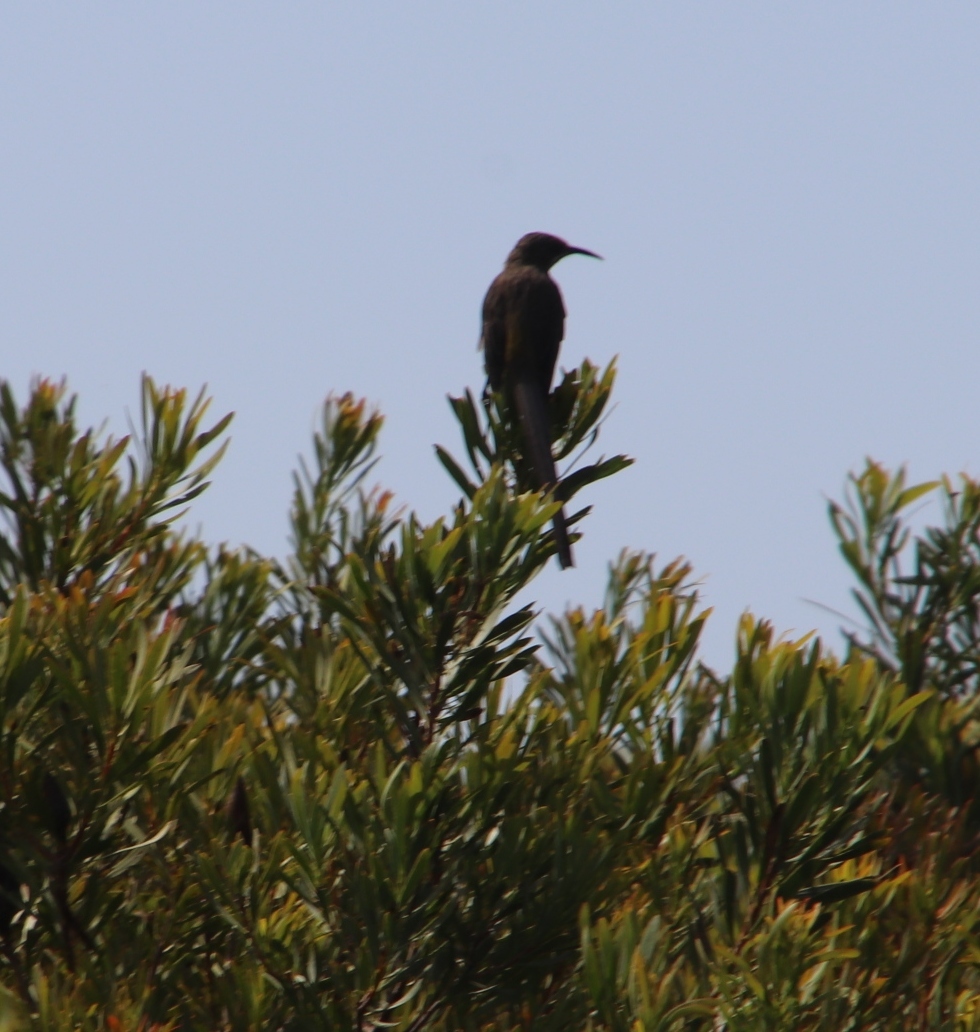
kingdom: Animalia
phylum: Chordata
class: Aves
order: Passeriformes
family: Promeropidae
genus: Promerops
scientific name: Promerops cafer
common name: Cape sugarbird
